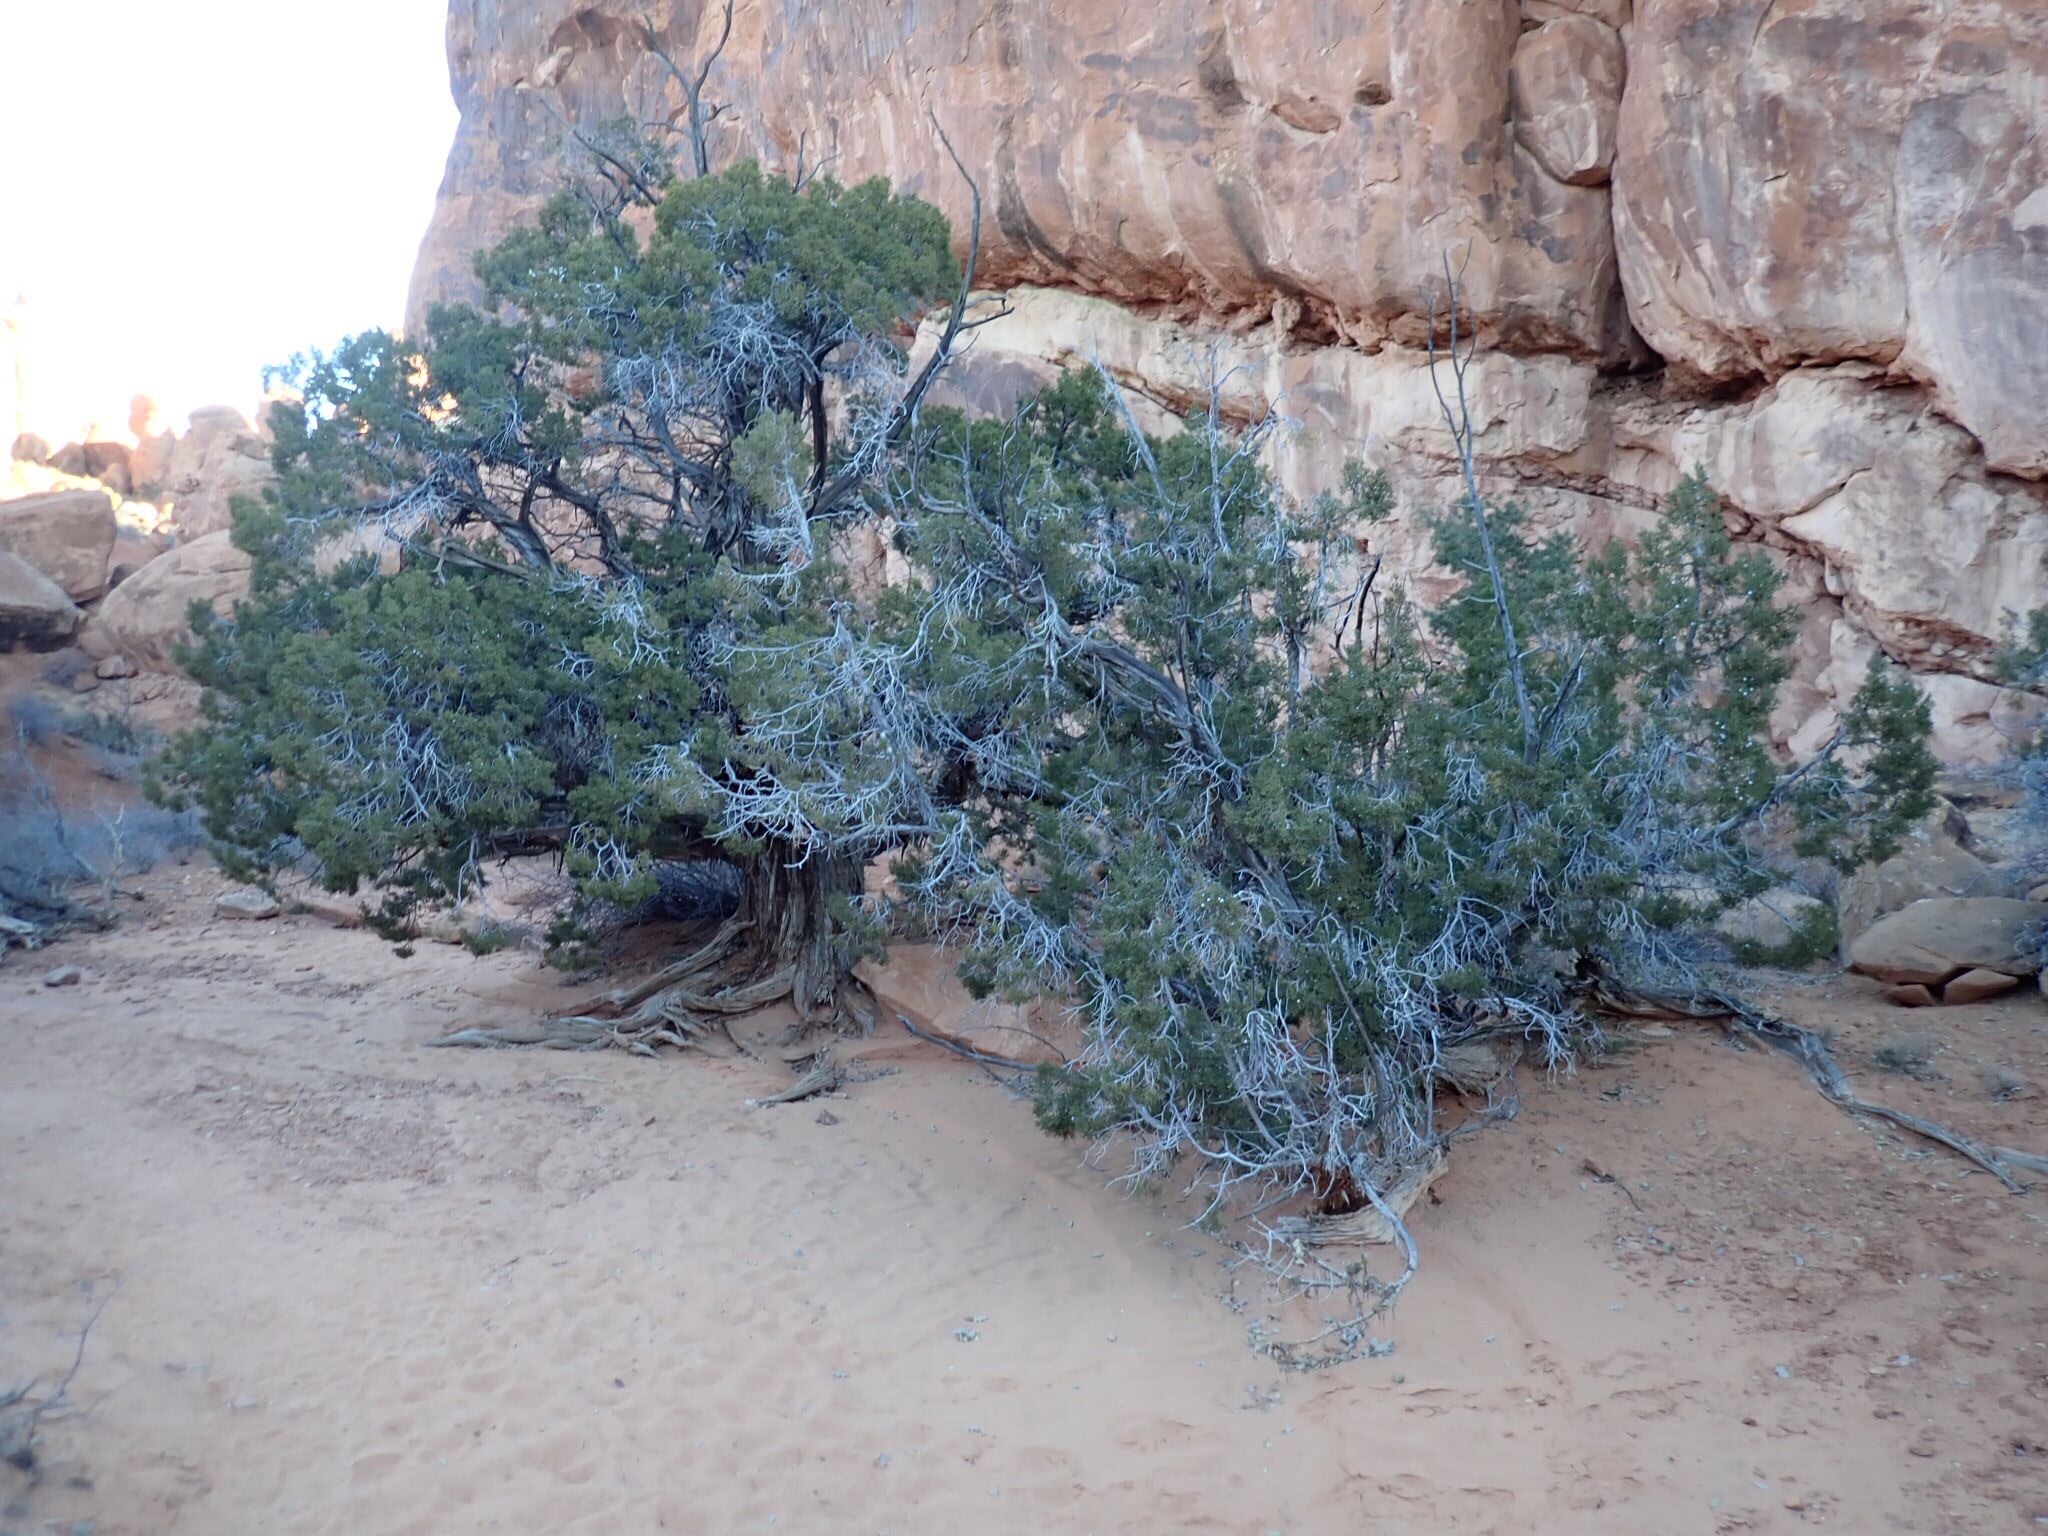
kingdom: Plantae
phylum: Tracheophyta
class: Pinopsida
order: Pinales
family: Cupressaceae
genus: Juniperus
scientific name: Juniperus osteosperma
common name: Utah juniper
